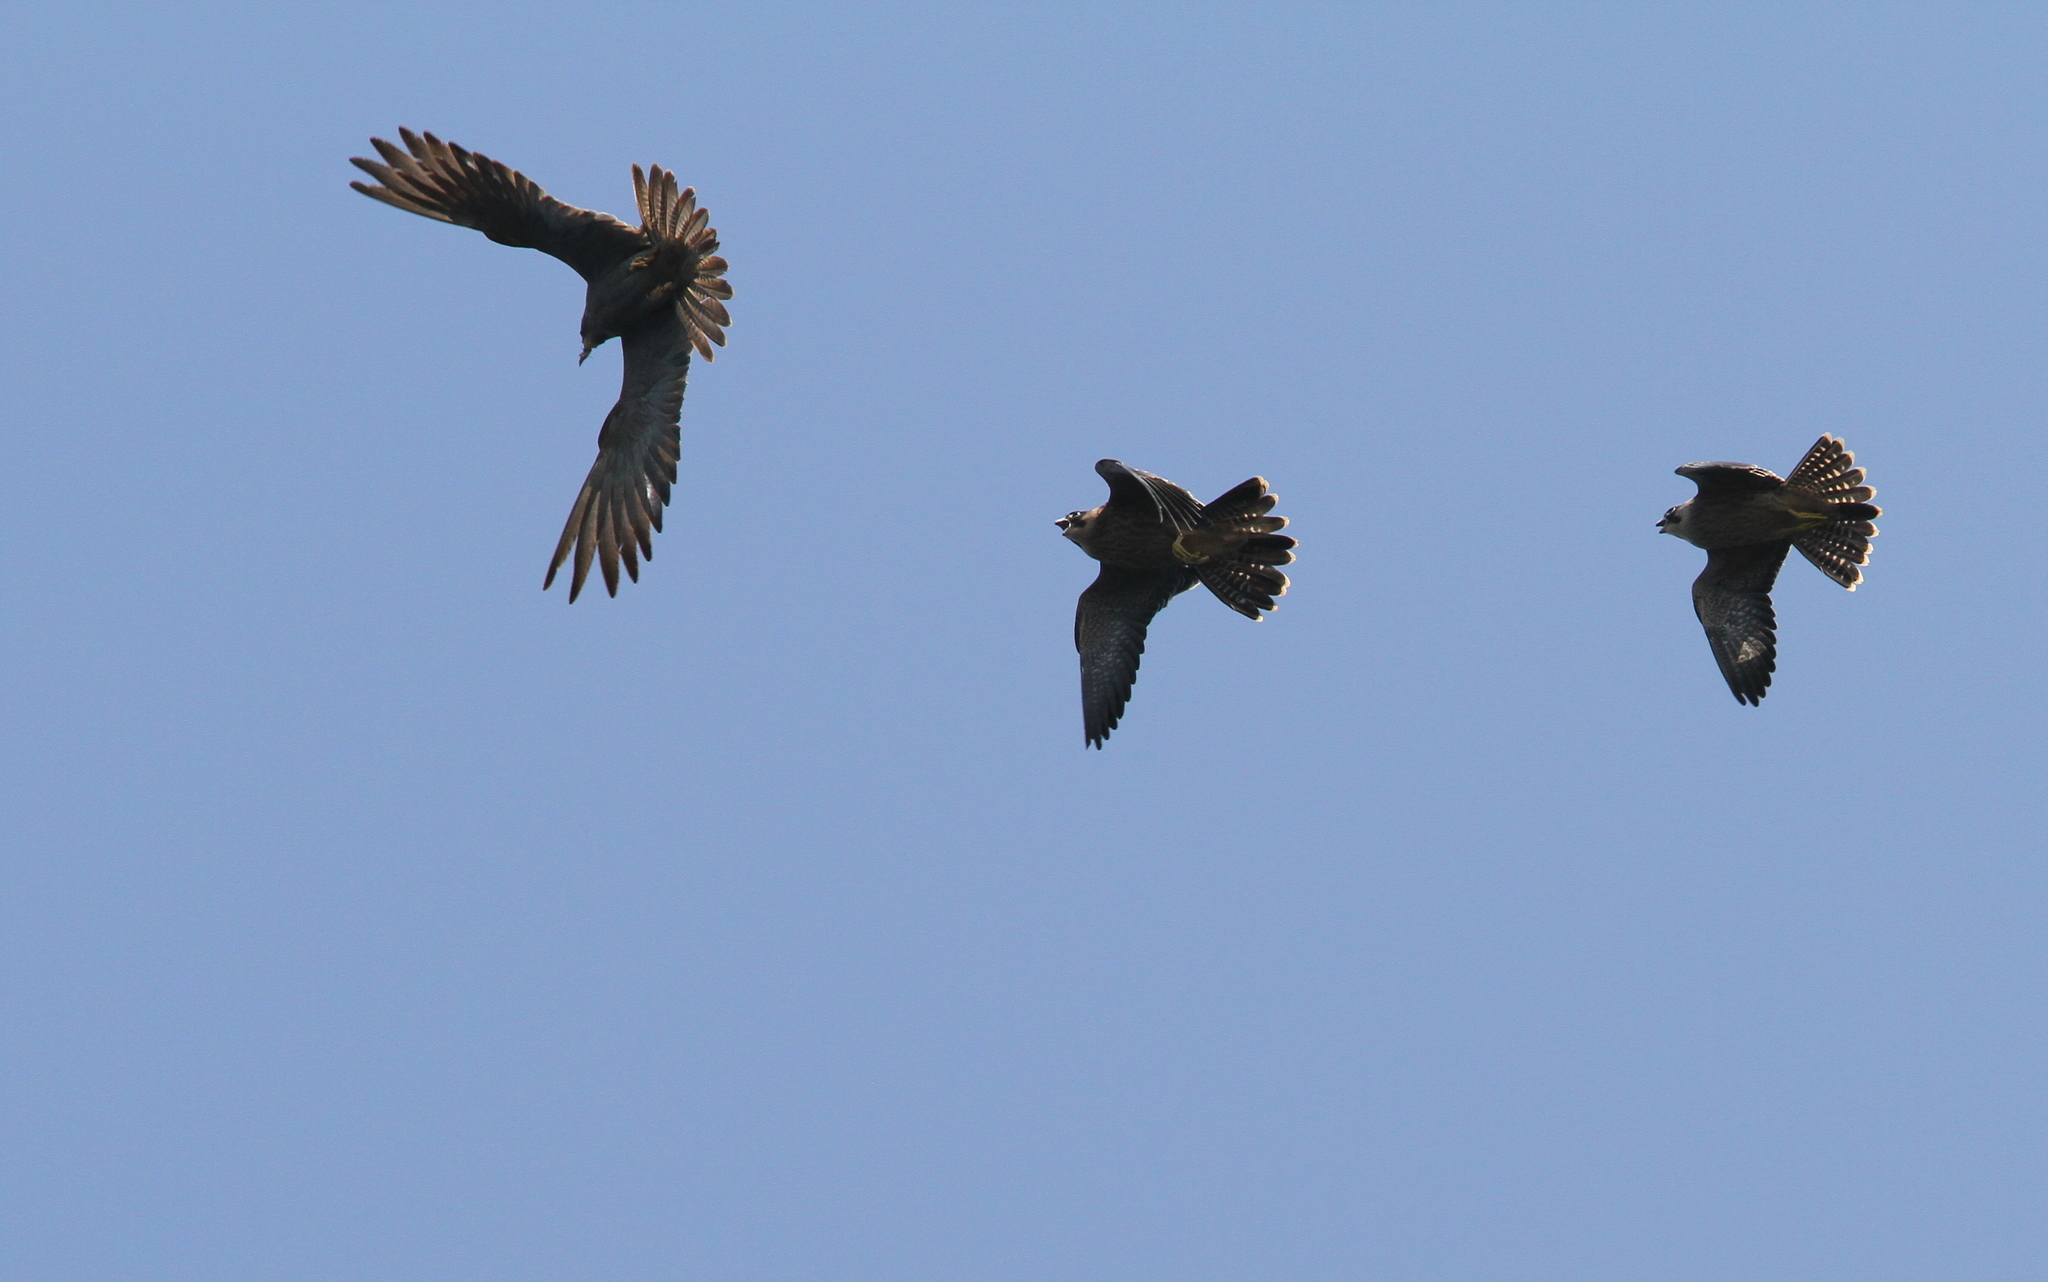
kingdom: Animalia
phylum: Chordata
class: Aves
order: Falconiformes
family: Falconidae
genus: Falco
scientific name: Falco concolor
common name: Sooty falcon
